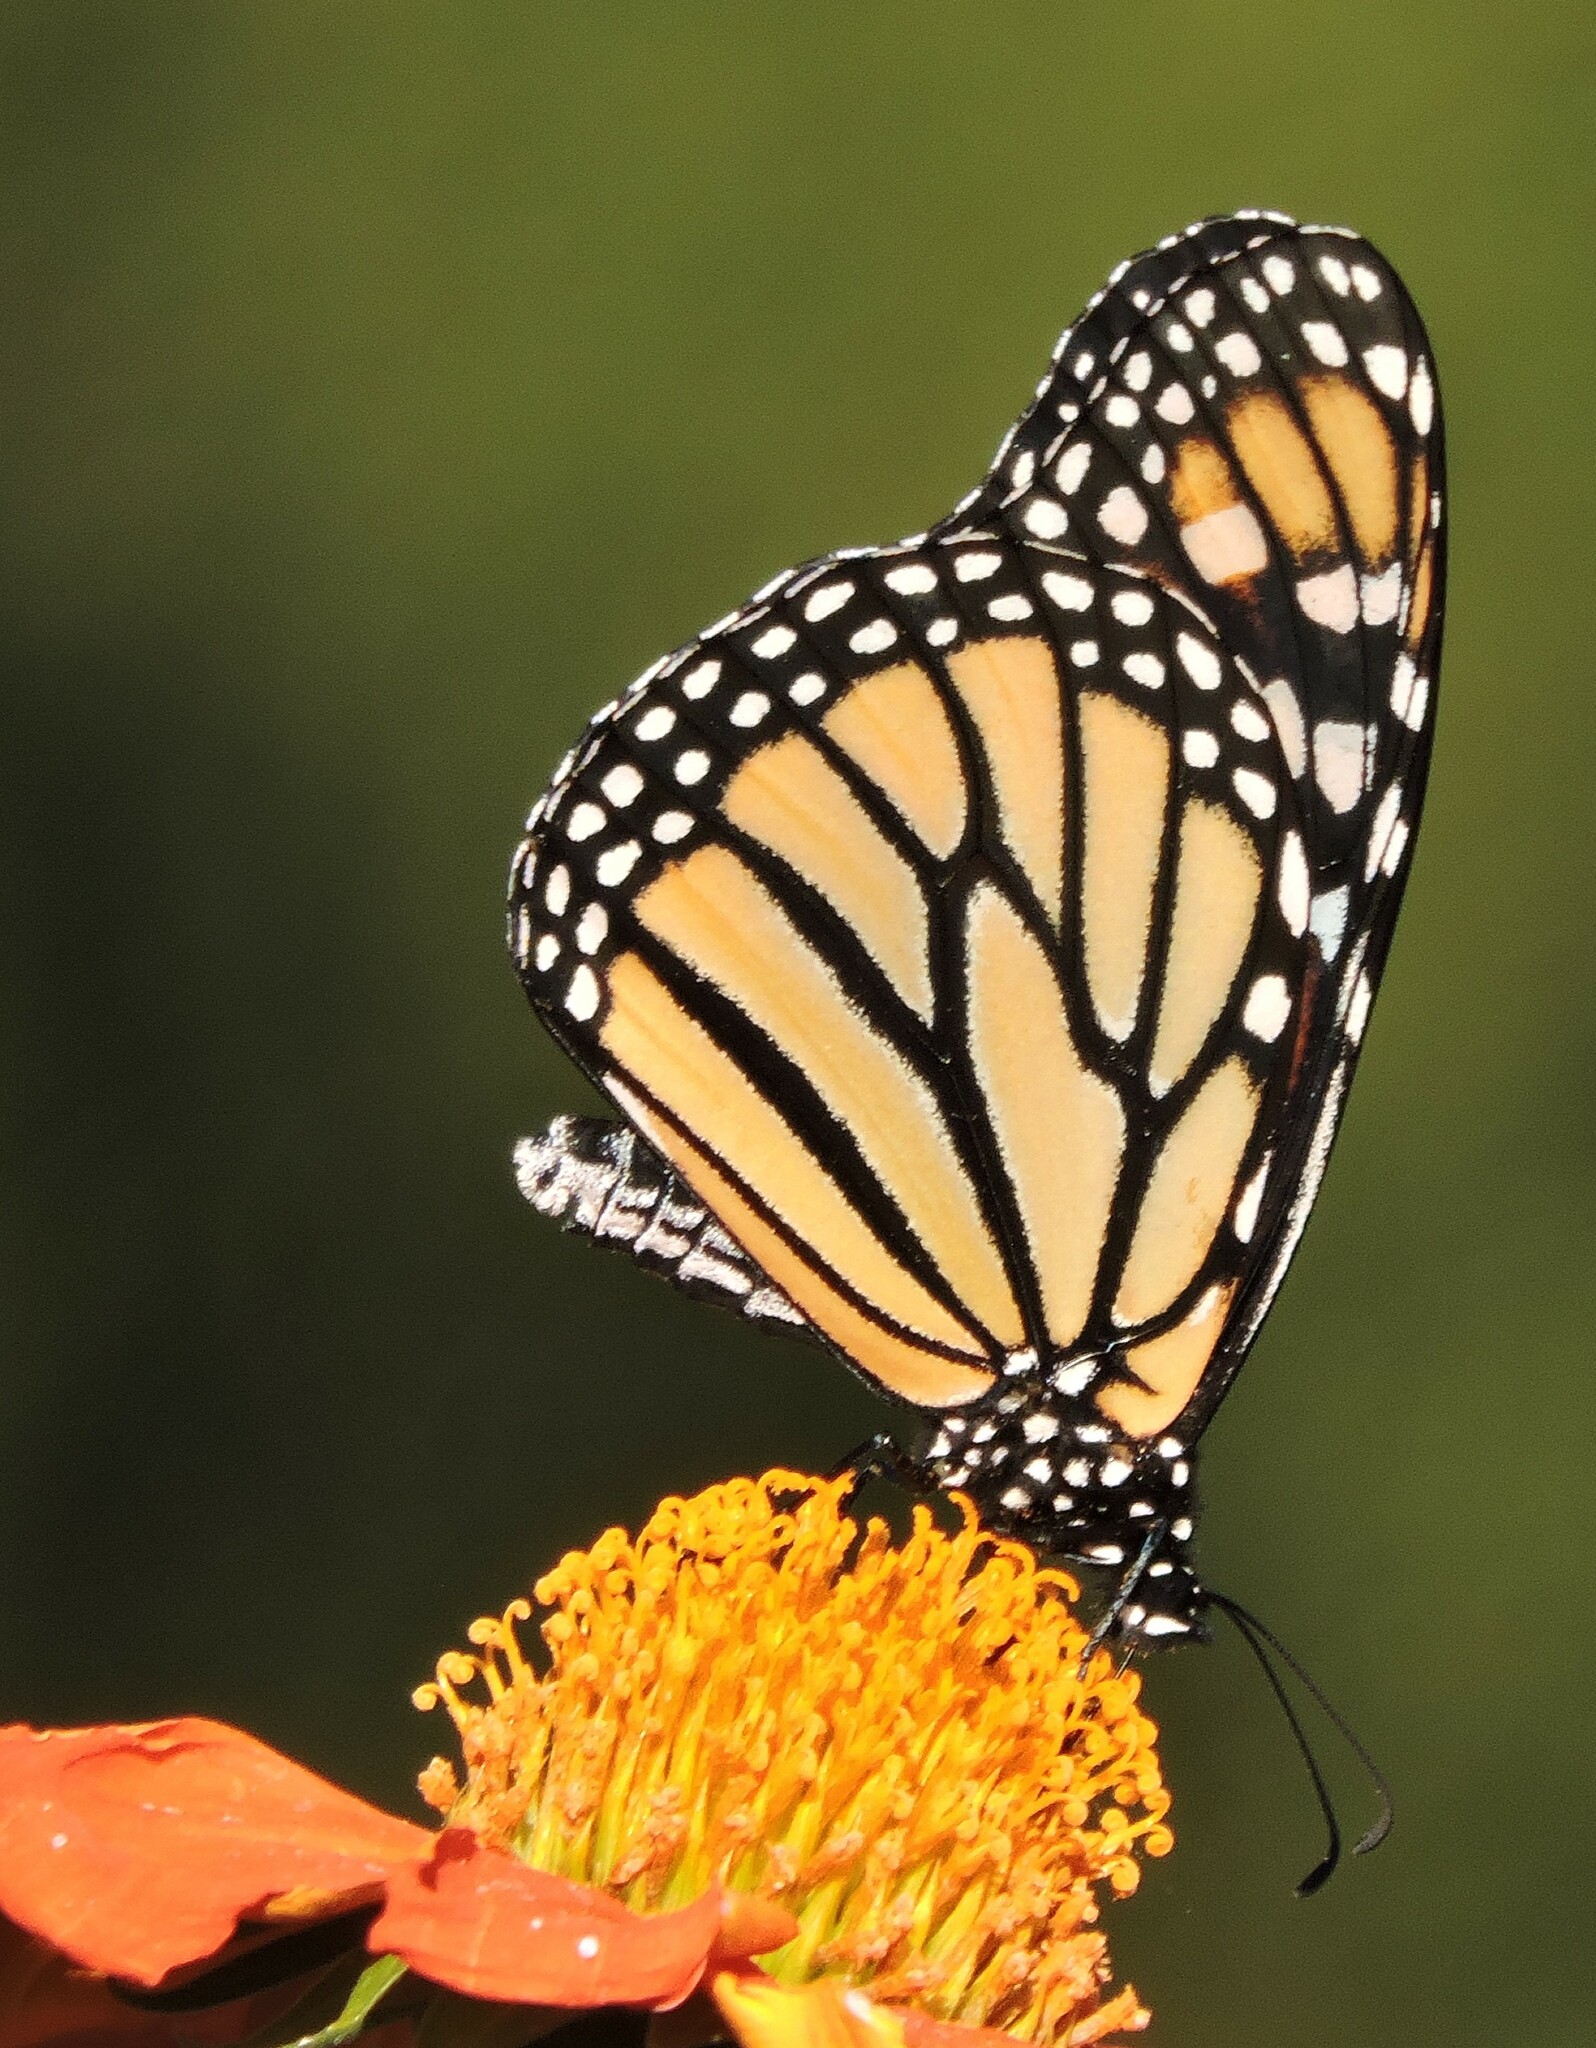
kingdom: Animalia
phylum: Arthropoda
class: Insecta
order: Lepidoptera
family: Nymphalidae
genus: Danaus
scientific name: Danaus plexippus
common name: Monarch
